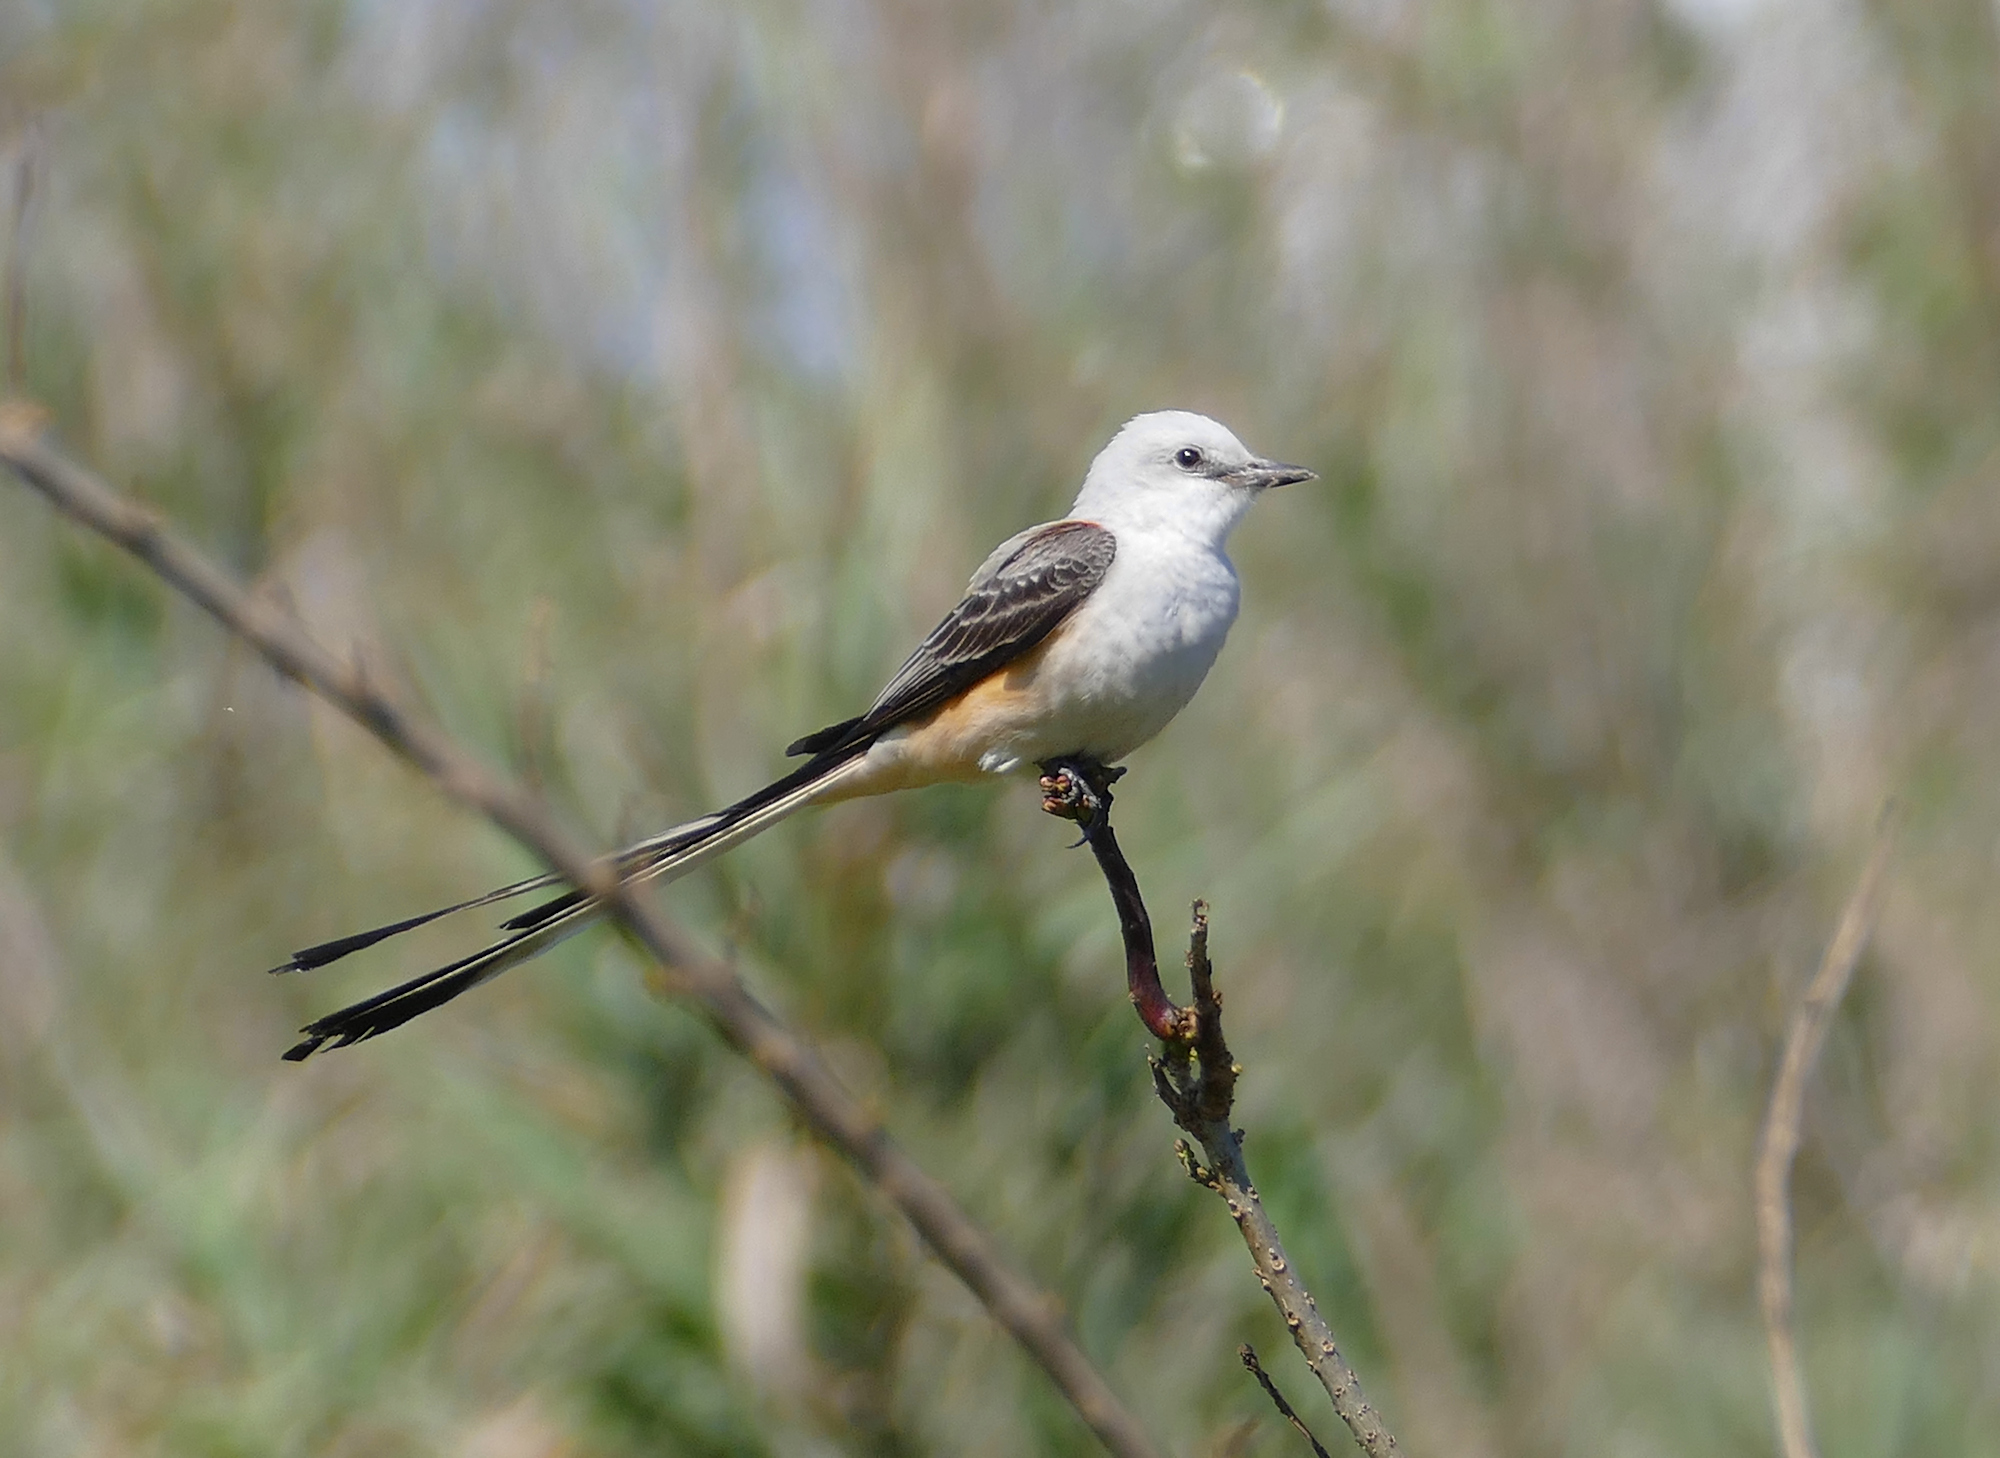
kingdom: Animalia
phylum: Chordata
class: Aves
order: Passeriformes
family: Tyrannidae
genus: Tyrannus
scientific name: Tyrannus forficatus
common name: Scissor-tailed flycatcher
